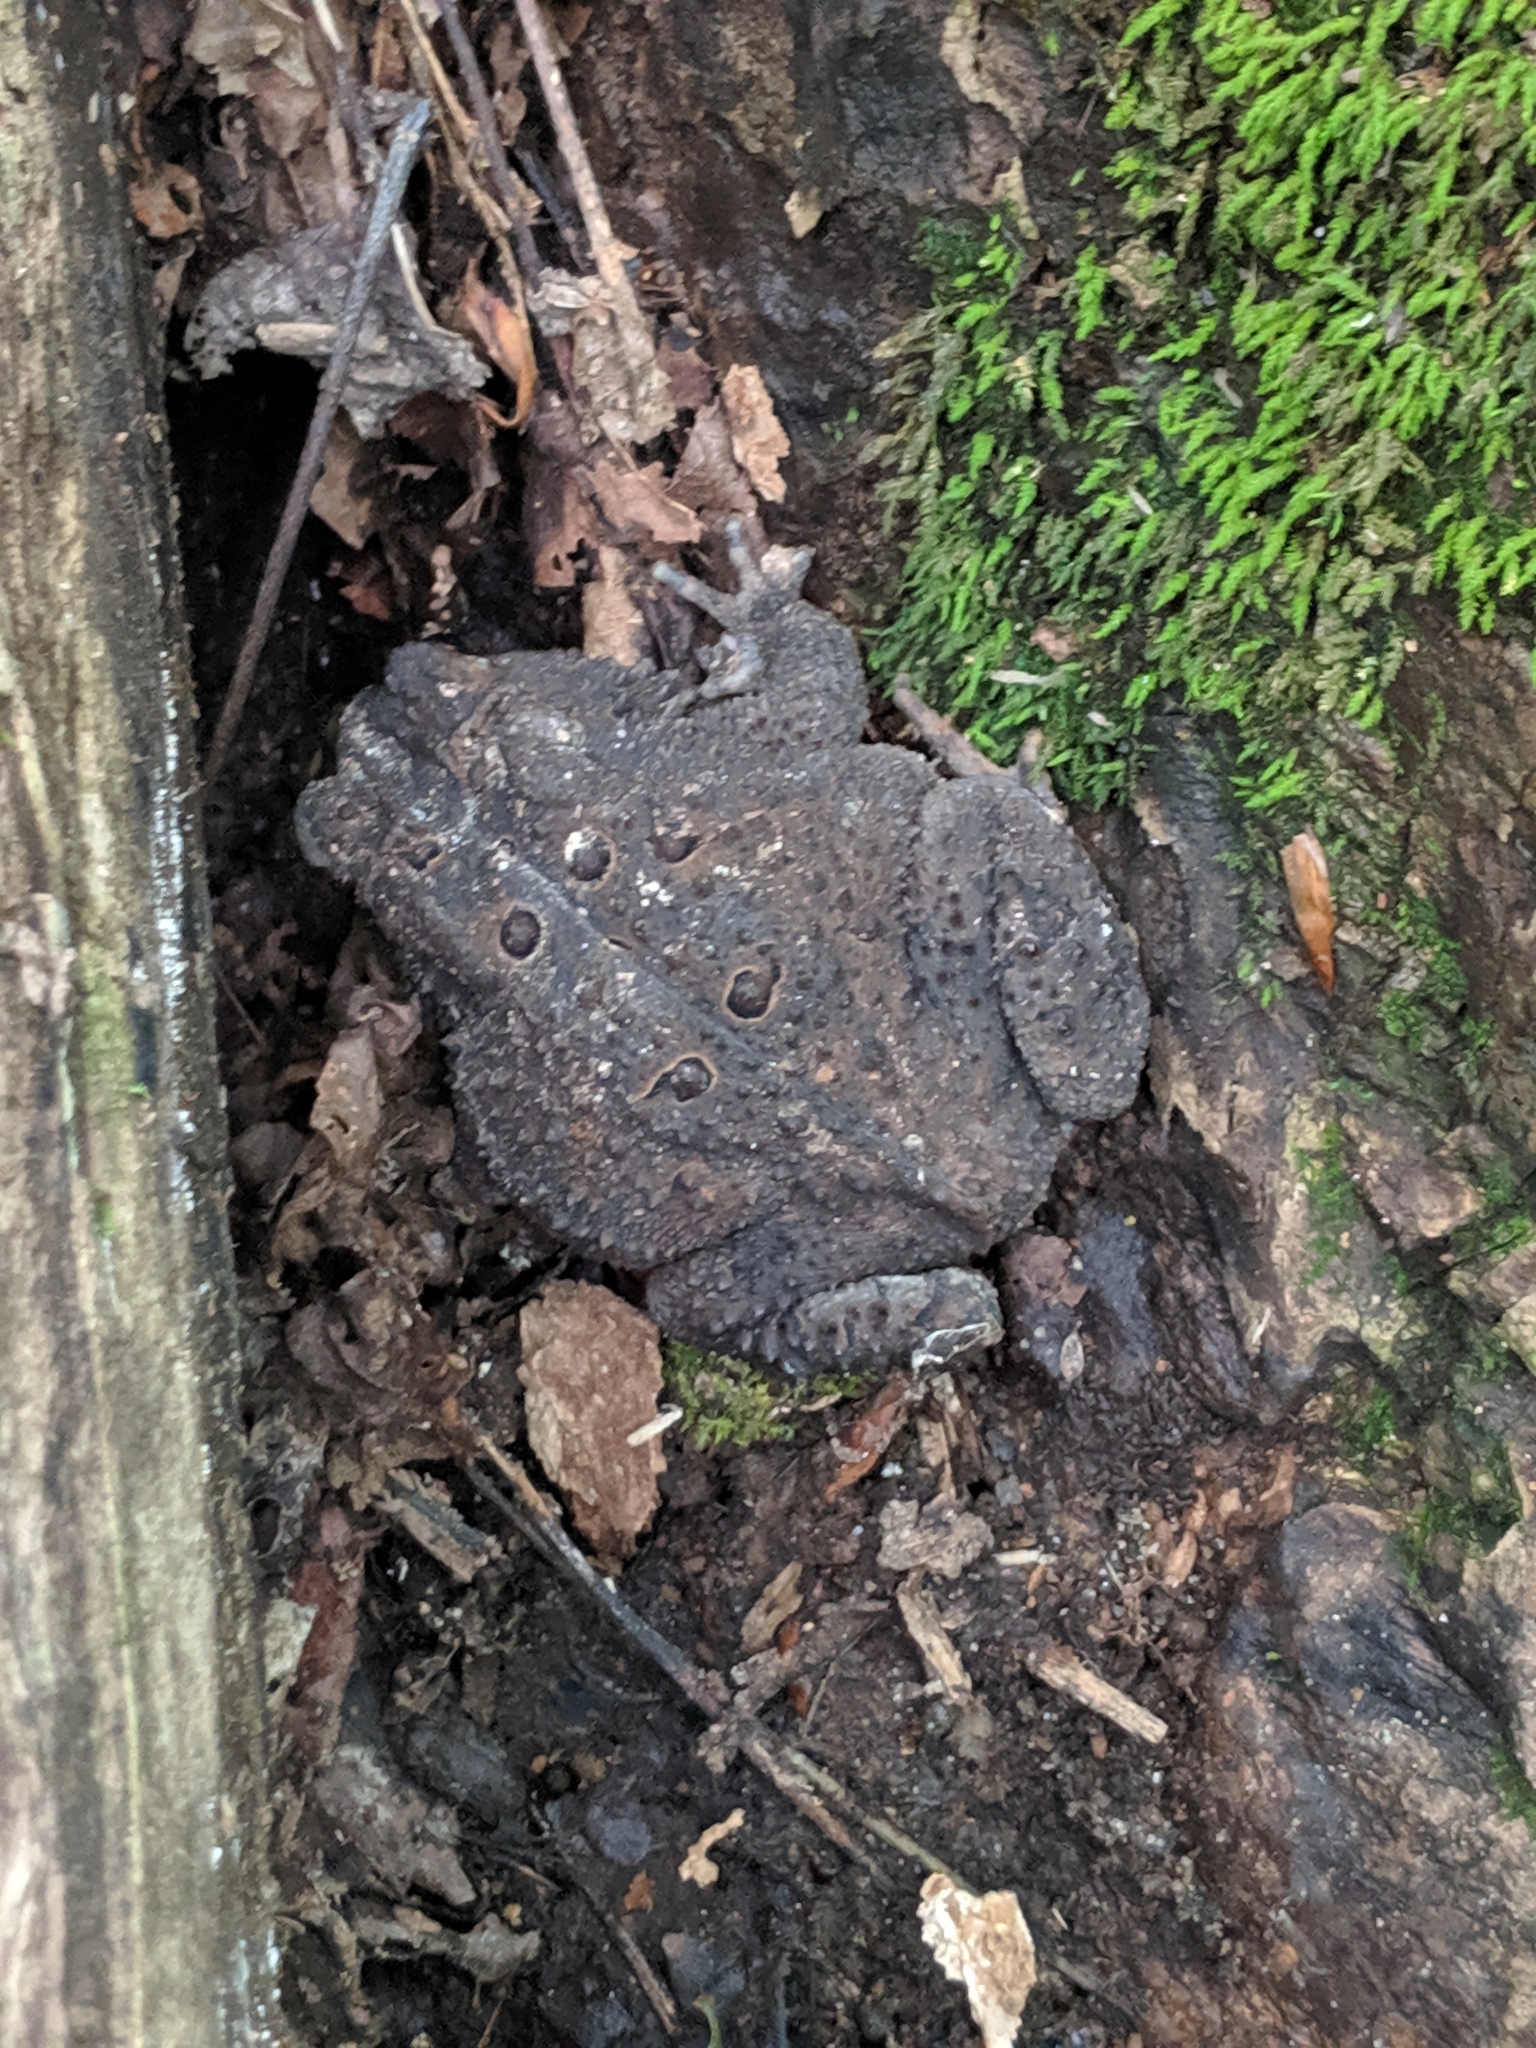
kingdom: Animalia
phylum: Chordata
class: Amphibia
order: Anura
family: Bufonidae
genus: Anaxyrus
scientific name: Anaxyrus americanus
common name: American toad
